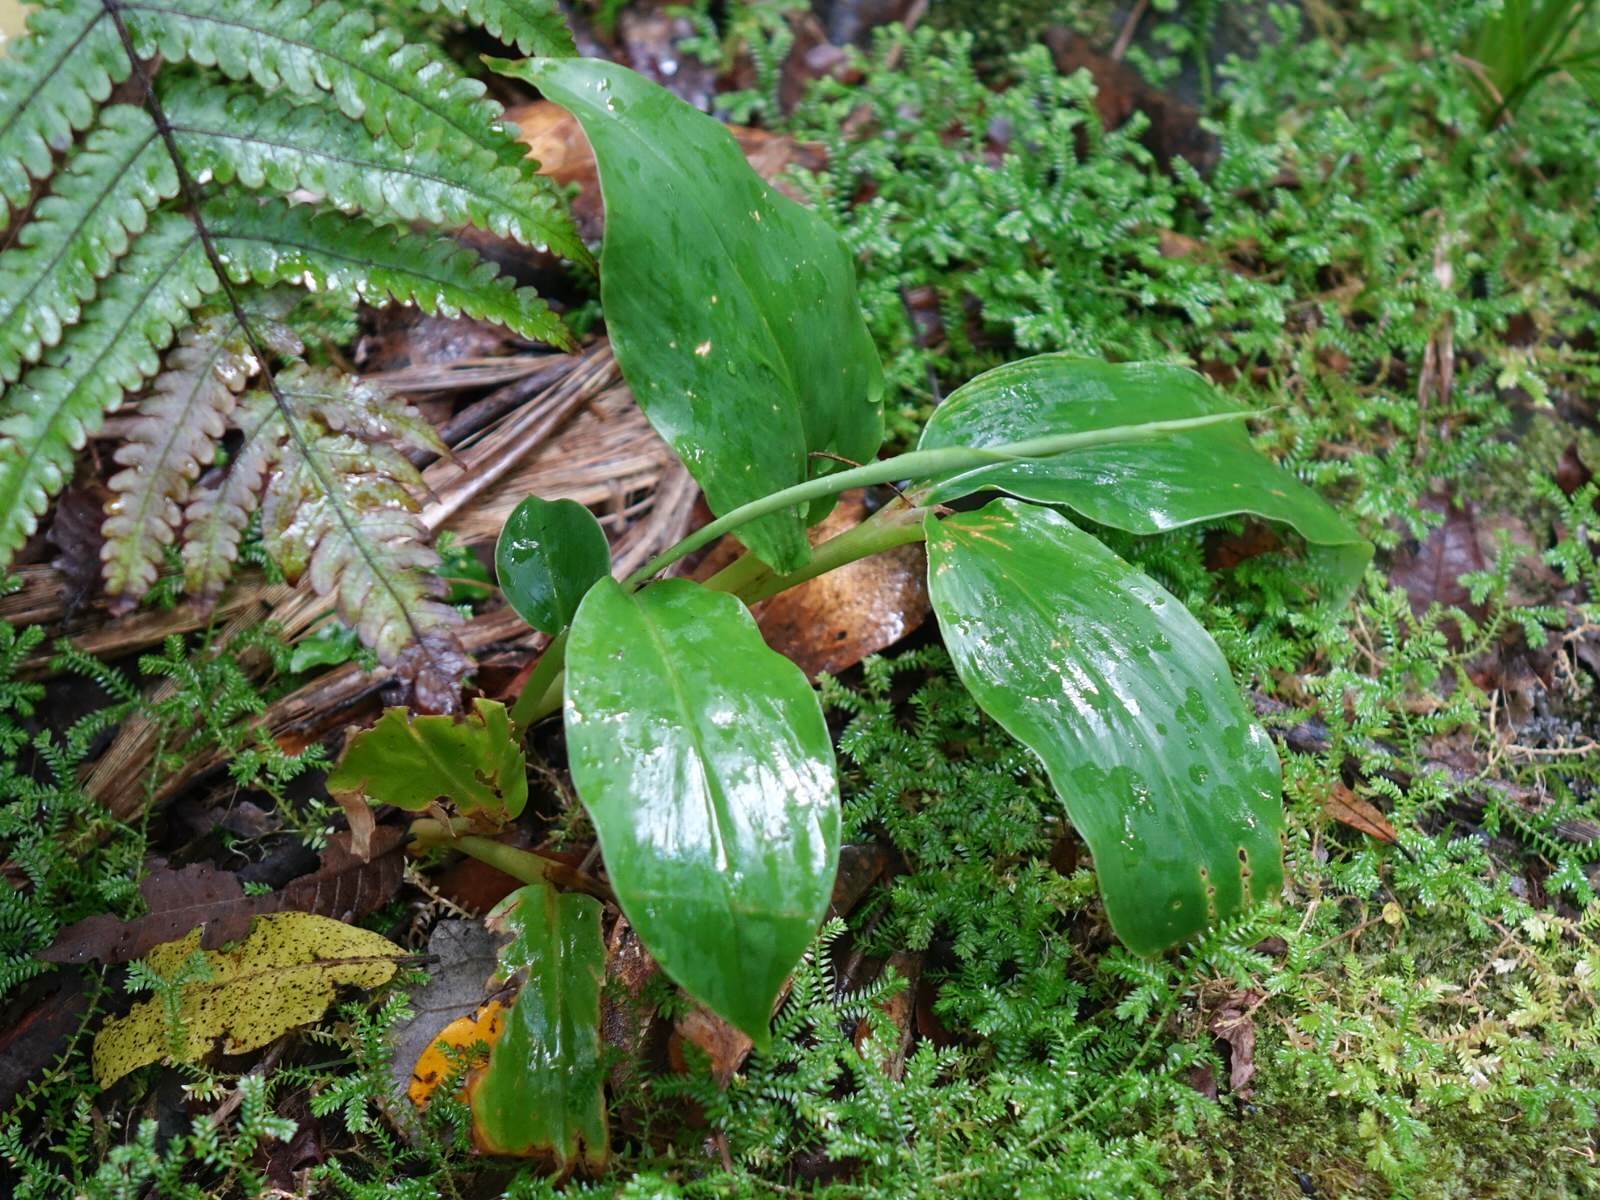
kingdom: Plantae
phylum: Tracheophyta
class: Liliopsida
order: Zingiberales
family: Zingiberaceae
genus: Hedychium
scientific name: Hedychium gardnerianum
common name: Himalayan ginger
